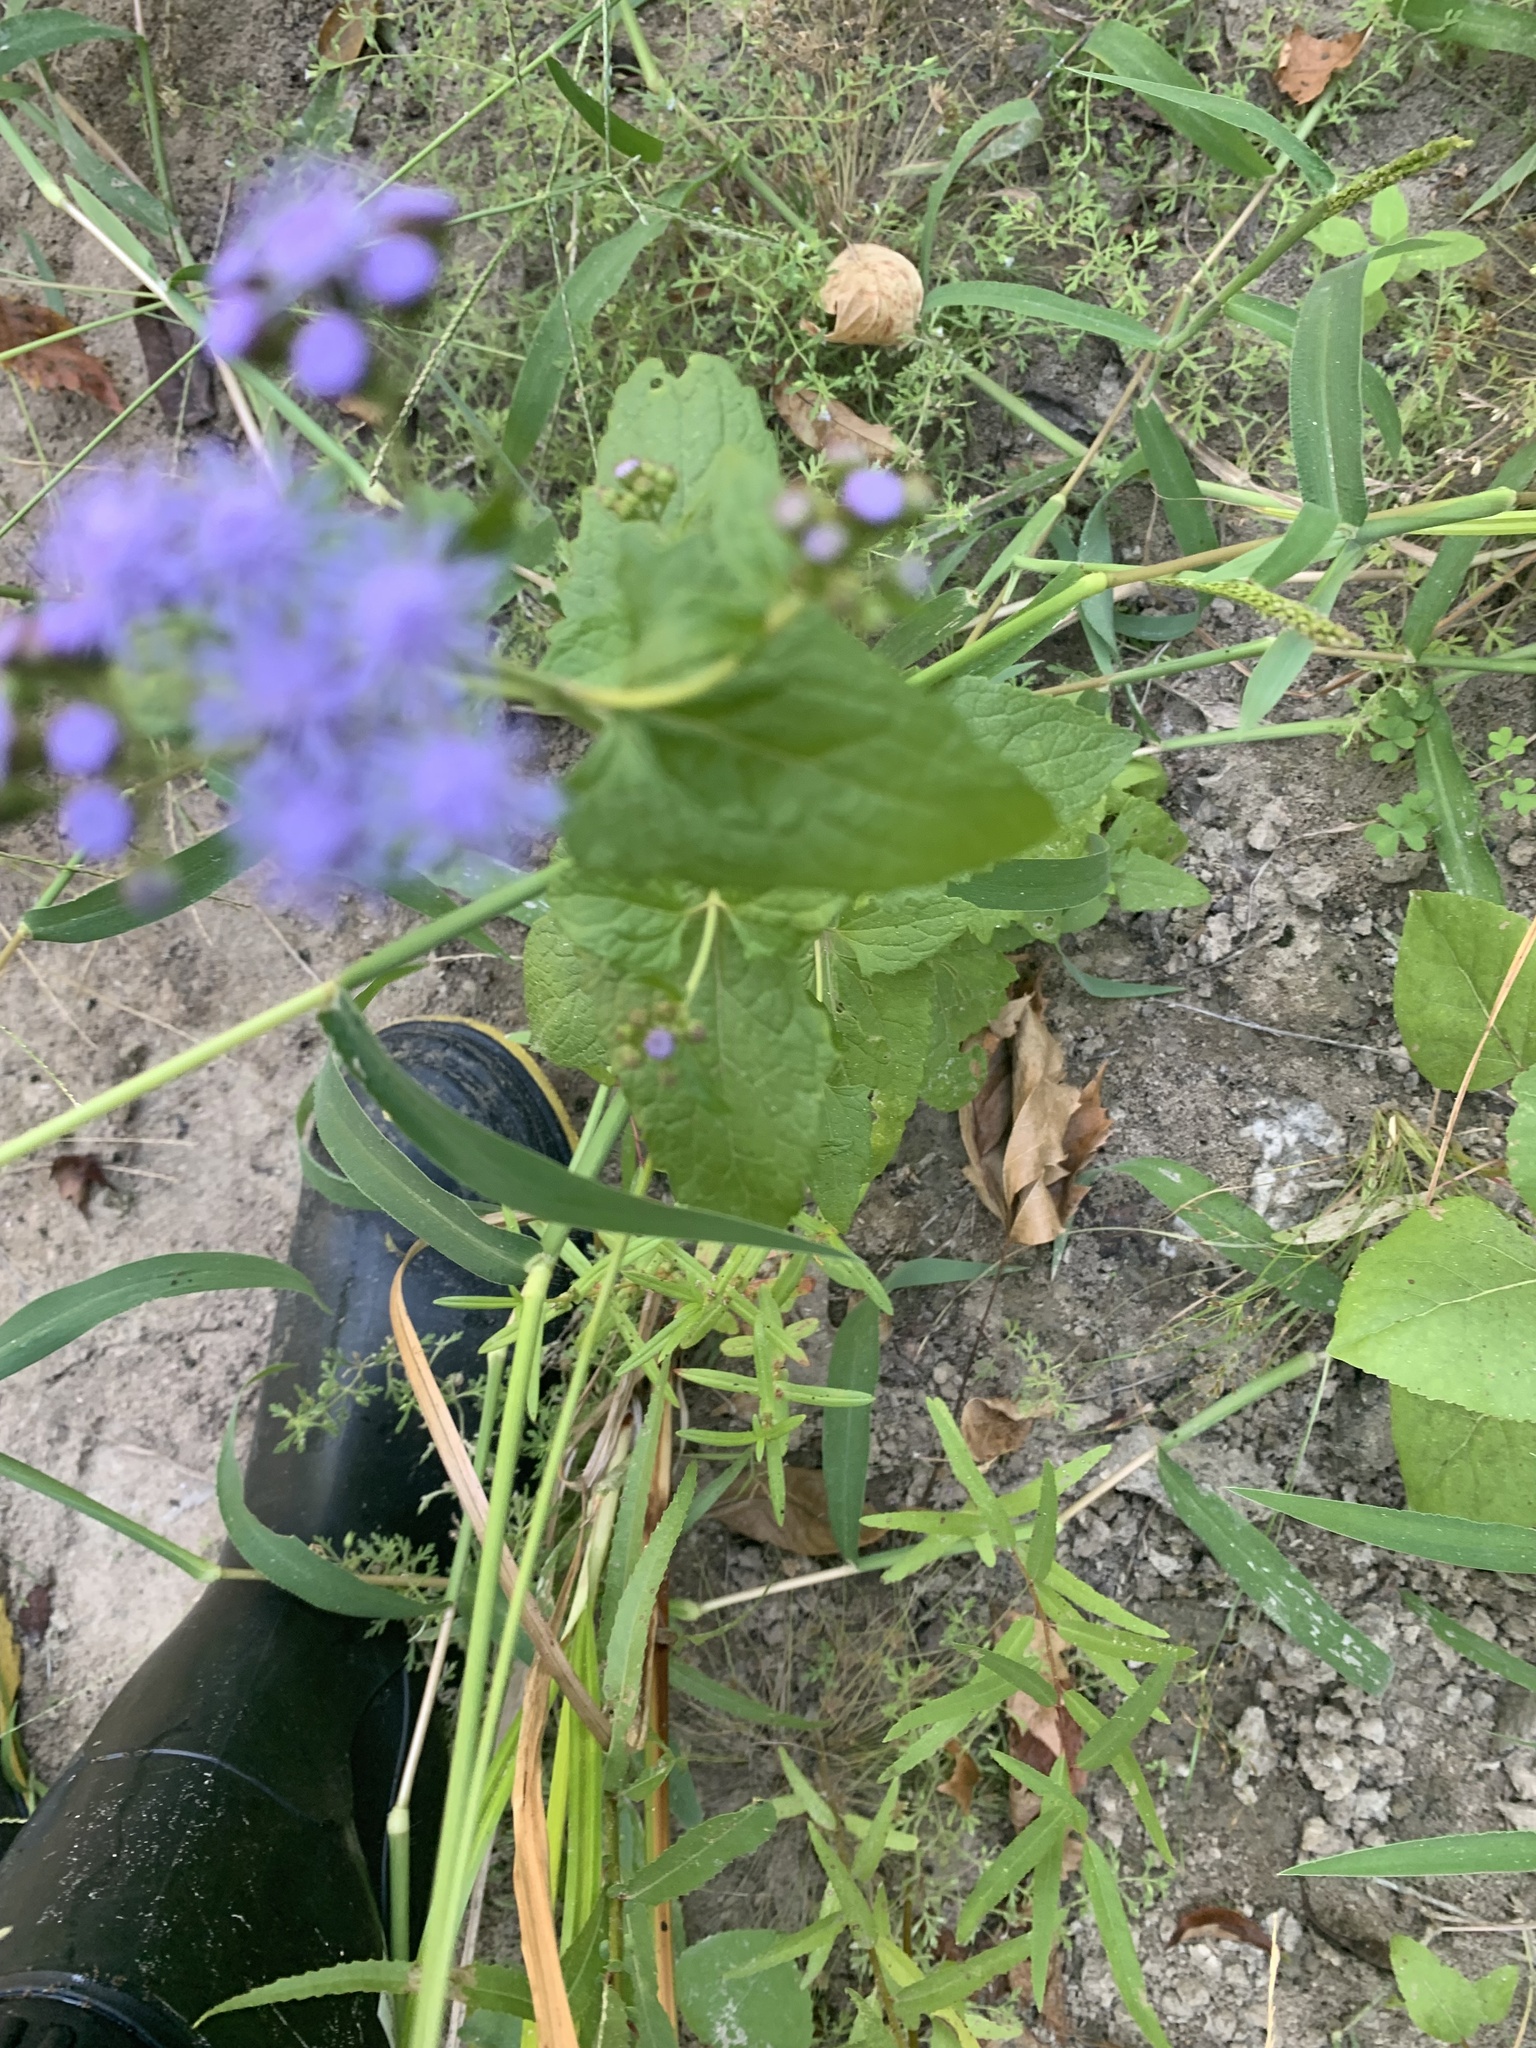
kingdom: Plantae
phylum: Tracheophyta
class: Magnoliopsida
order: Asterales
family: Asteraceae
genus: Conoclinium
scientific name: Conoclinium coelestinum
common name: Blue mistflower
